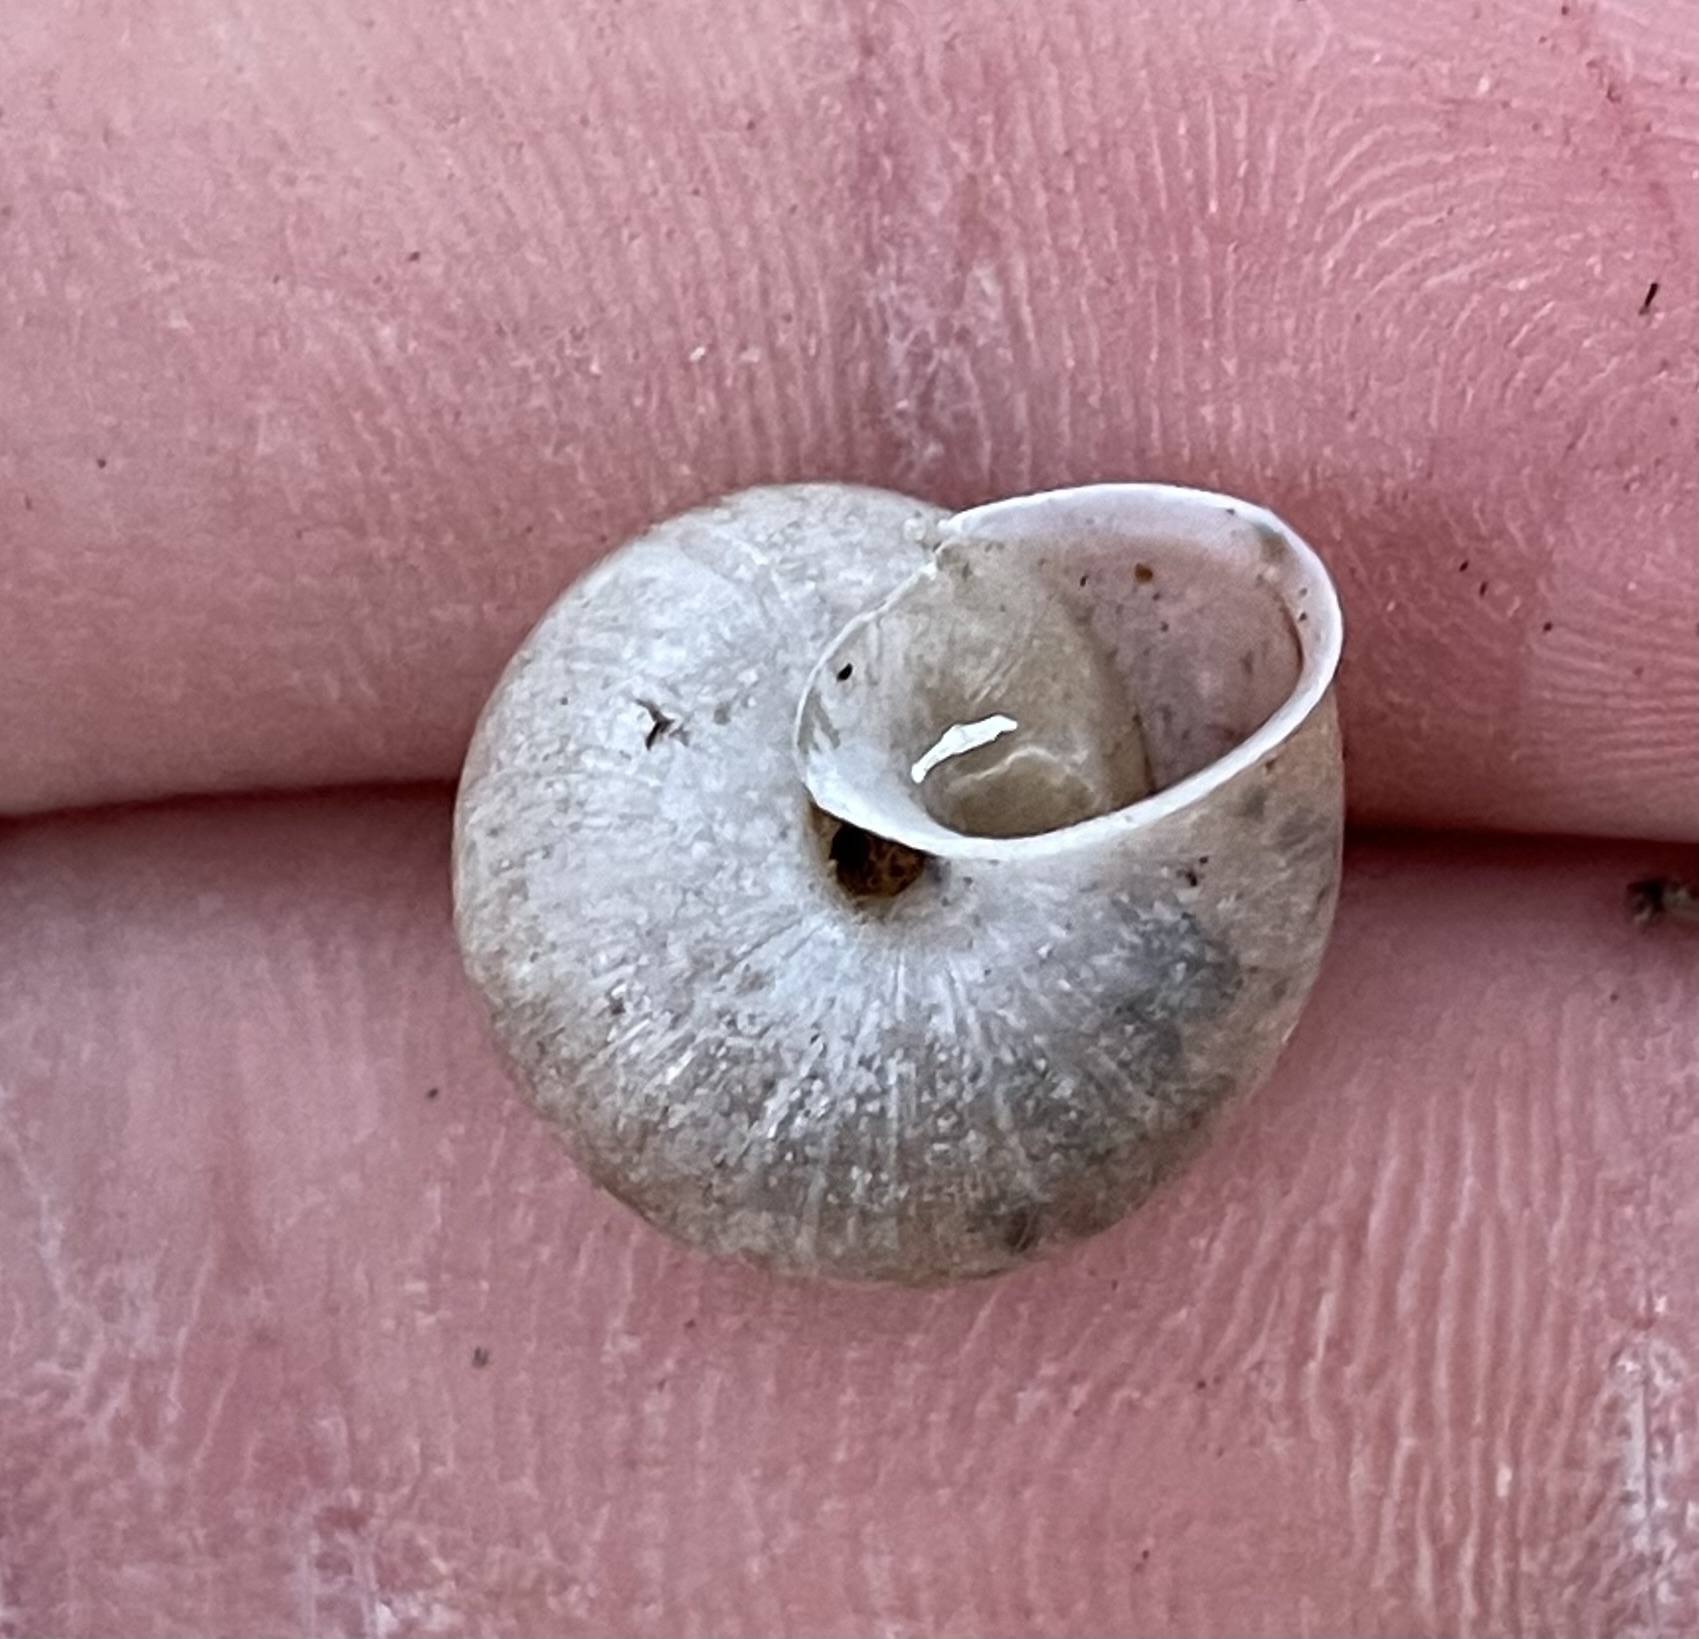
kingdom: Animalia
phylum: Mollusca
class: Gastropoda
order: Stylommatophora
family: Camaenidae
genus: Bradybaena
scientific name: Bradybaena similaris
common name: Asian trampsnail
